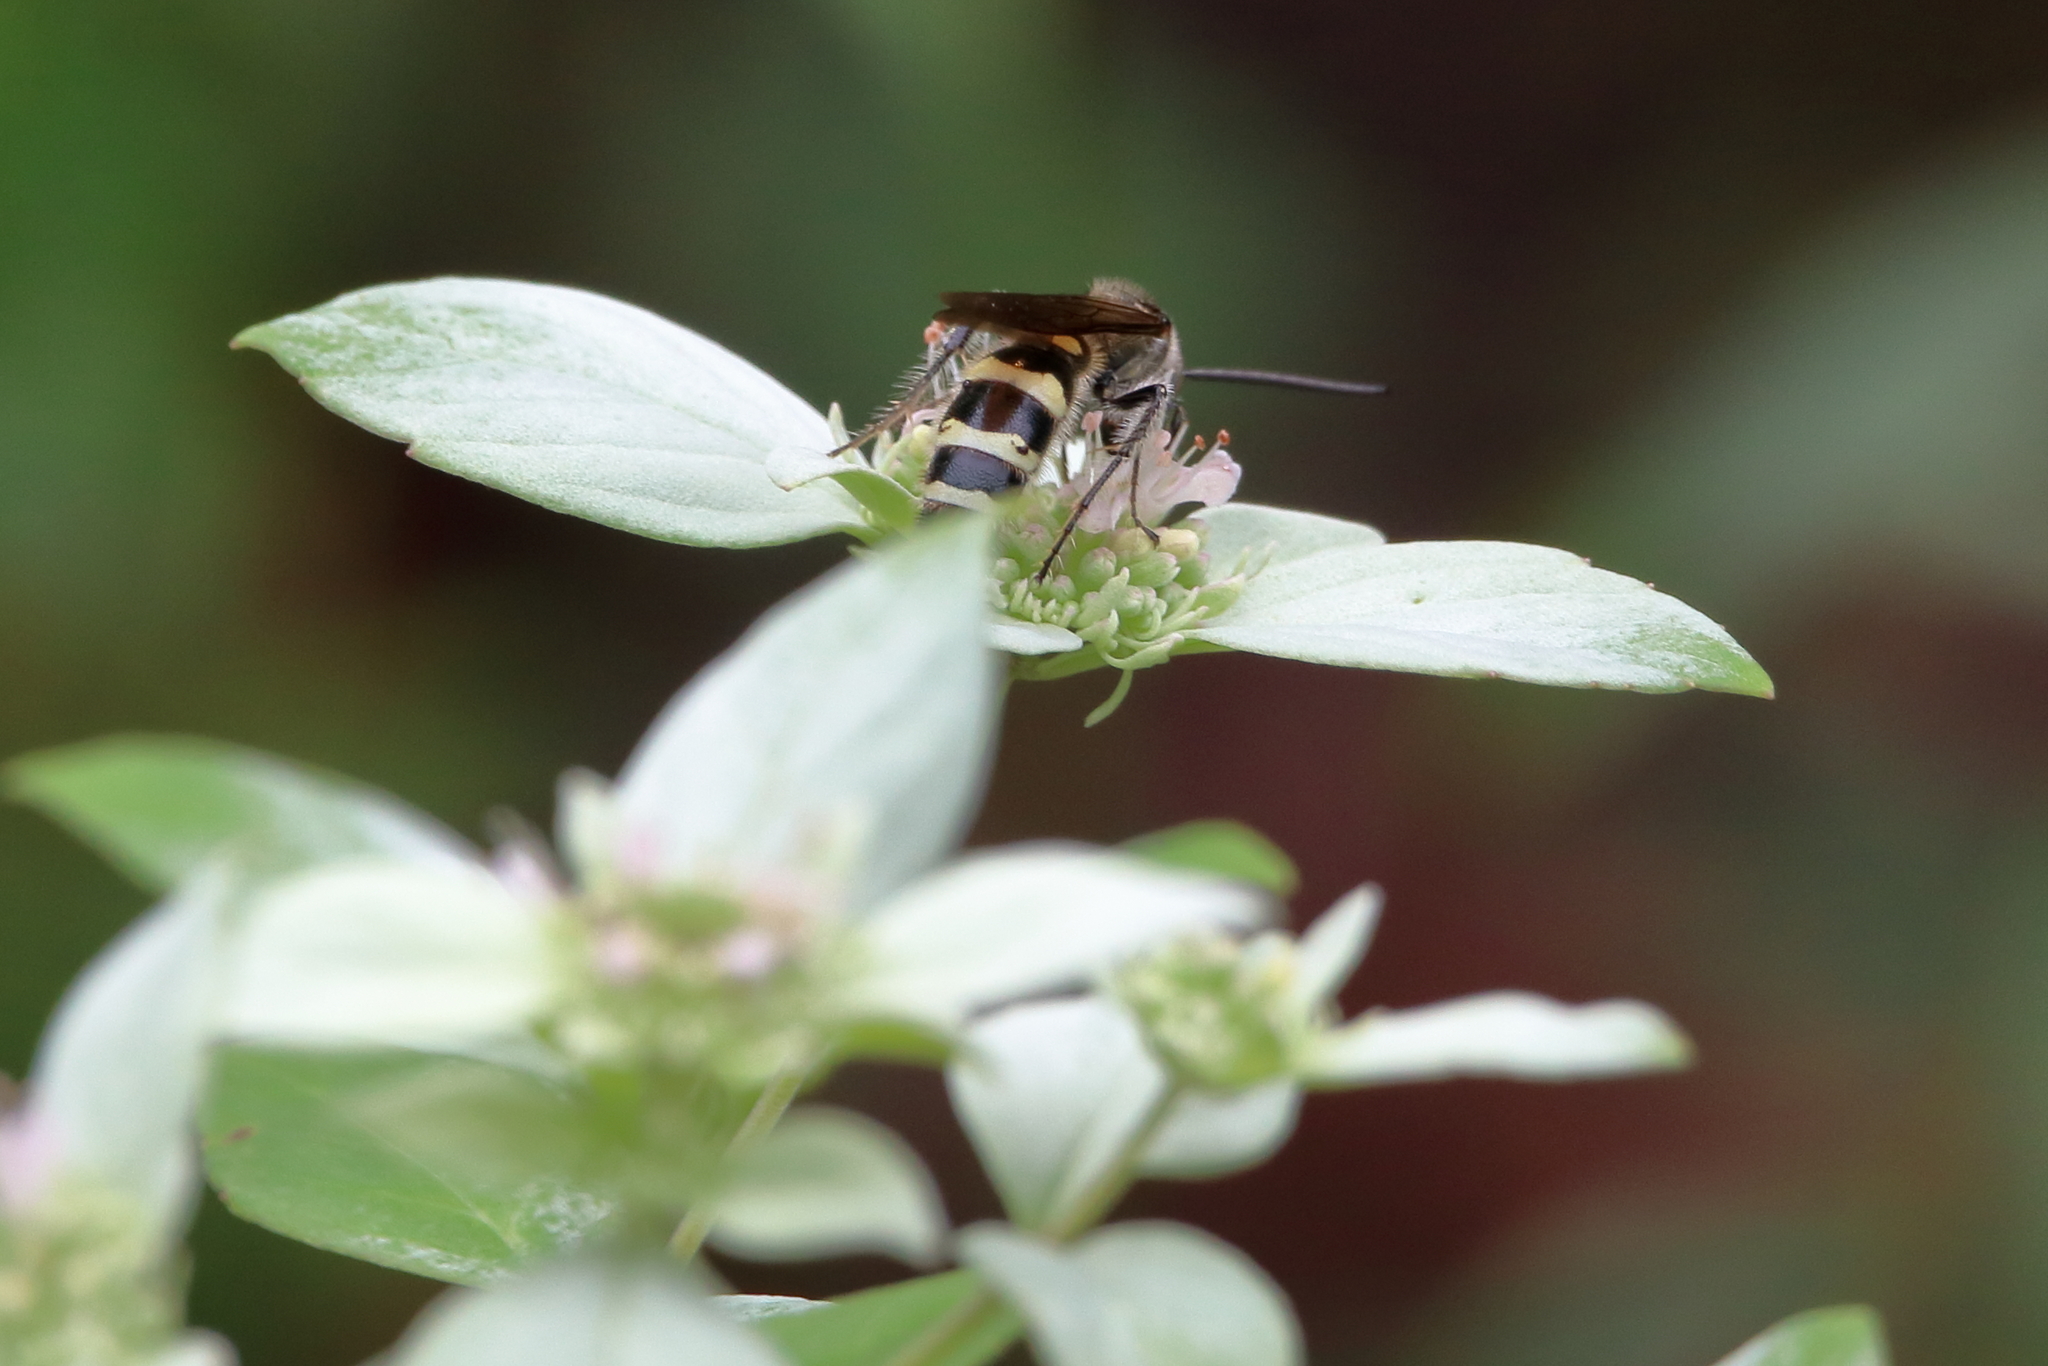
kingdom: Animalia
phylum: Arthropoda
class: Insecta
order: Hymenoptera
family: Scoliidae
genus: Dielis
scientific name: Dielis
